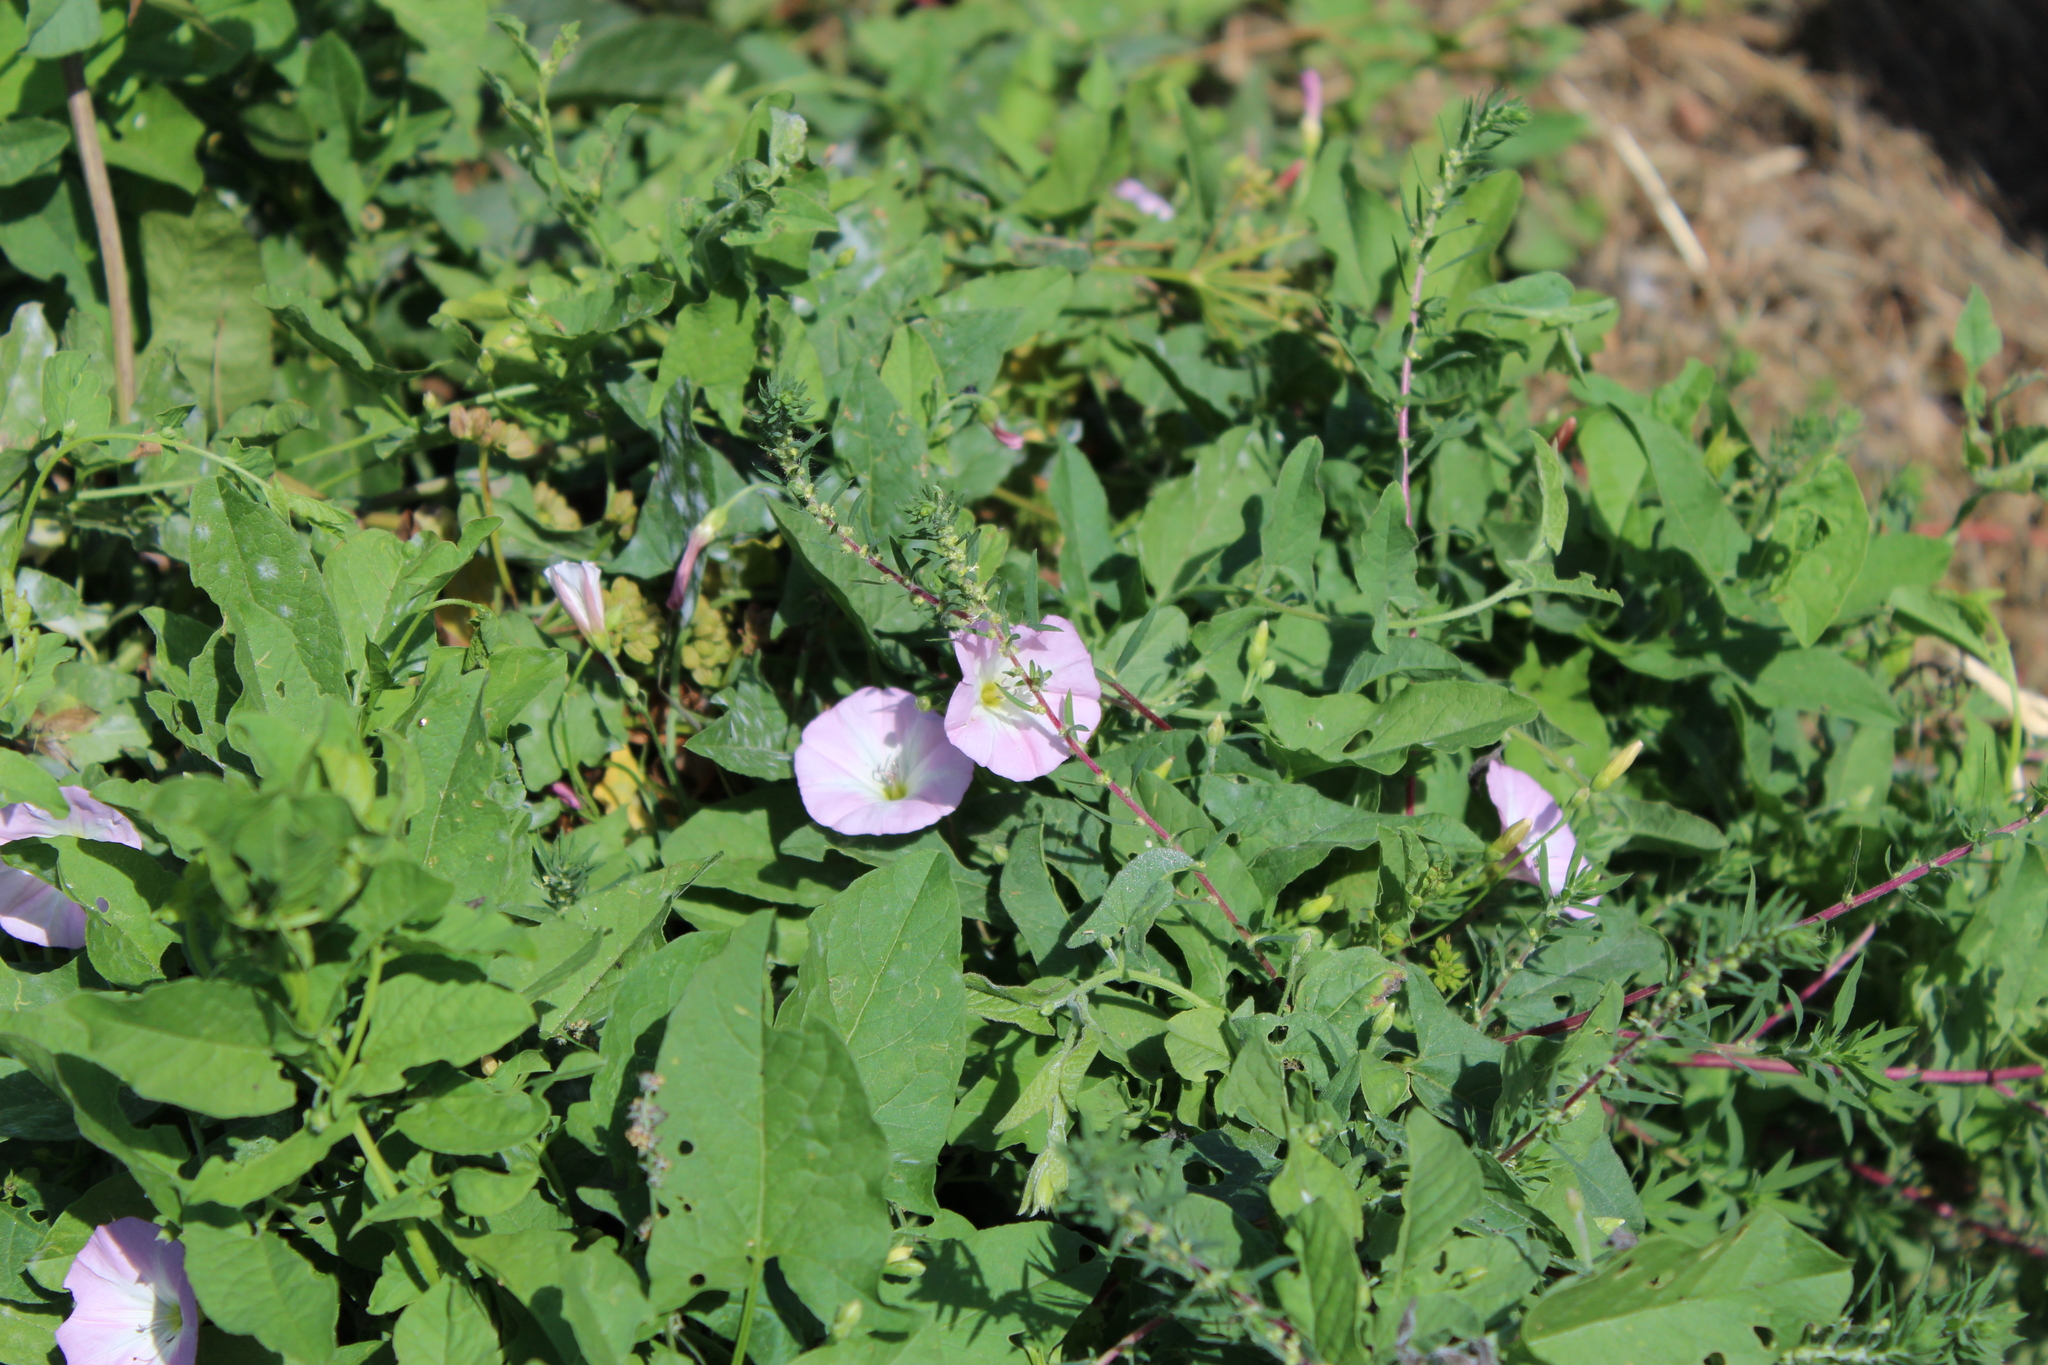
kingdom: Plantae
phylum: Tracheophyta
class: Magnoliopsida
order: Solanales
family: Convolvulaceae
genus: Convolvulus
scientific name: Convolvulus arvensis
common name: Field bindweed
